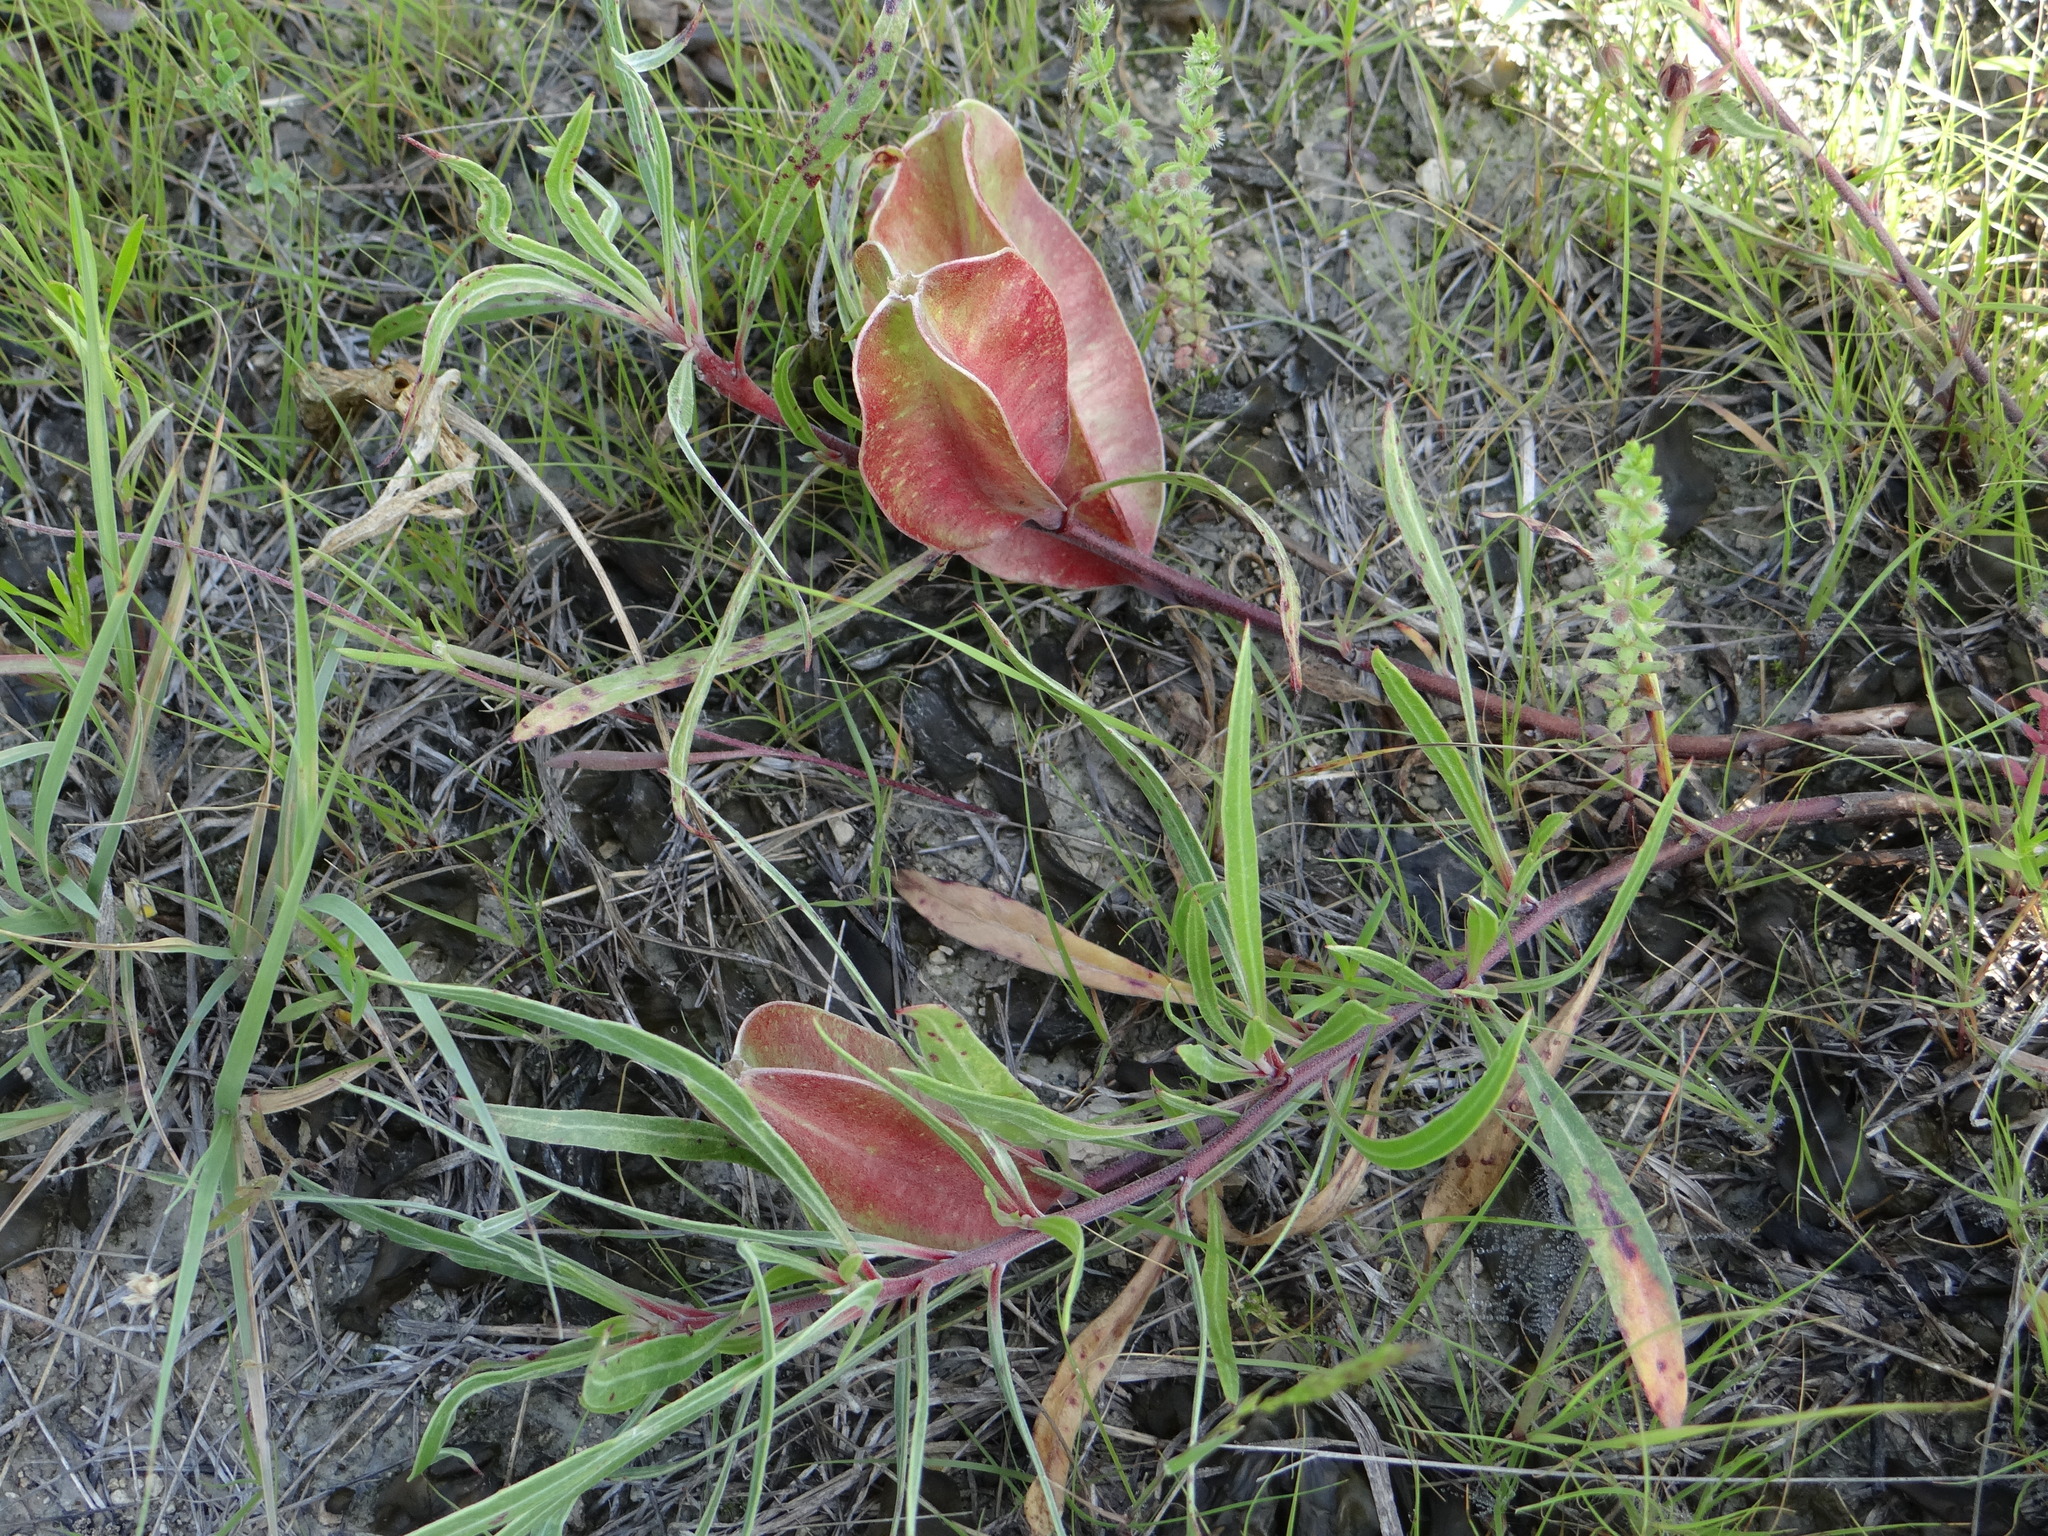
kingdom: Plantae
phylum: Tracheophyta
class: Magnoliopsida
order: Myrtales
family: Onagraceae
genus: Oenothera
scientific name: Oenothera macrocarpa
